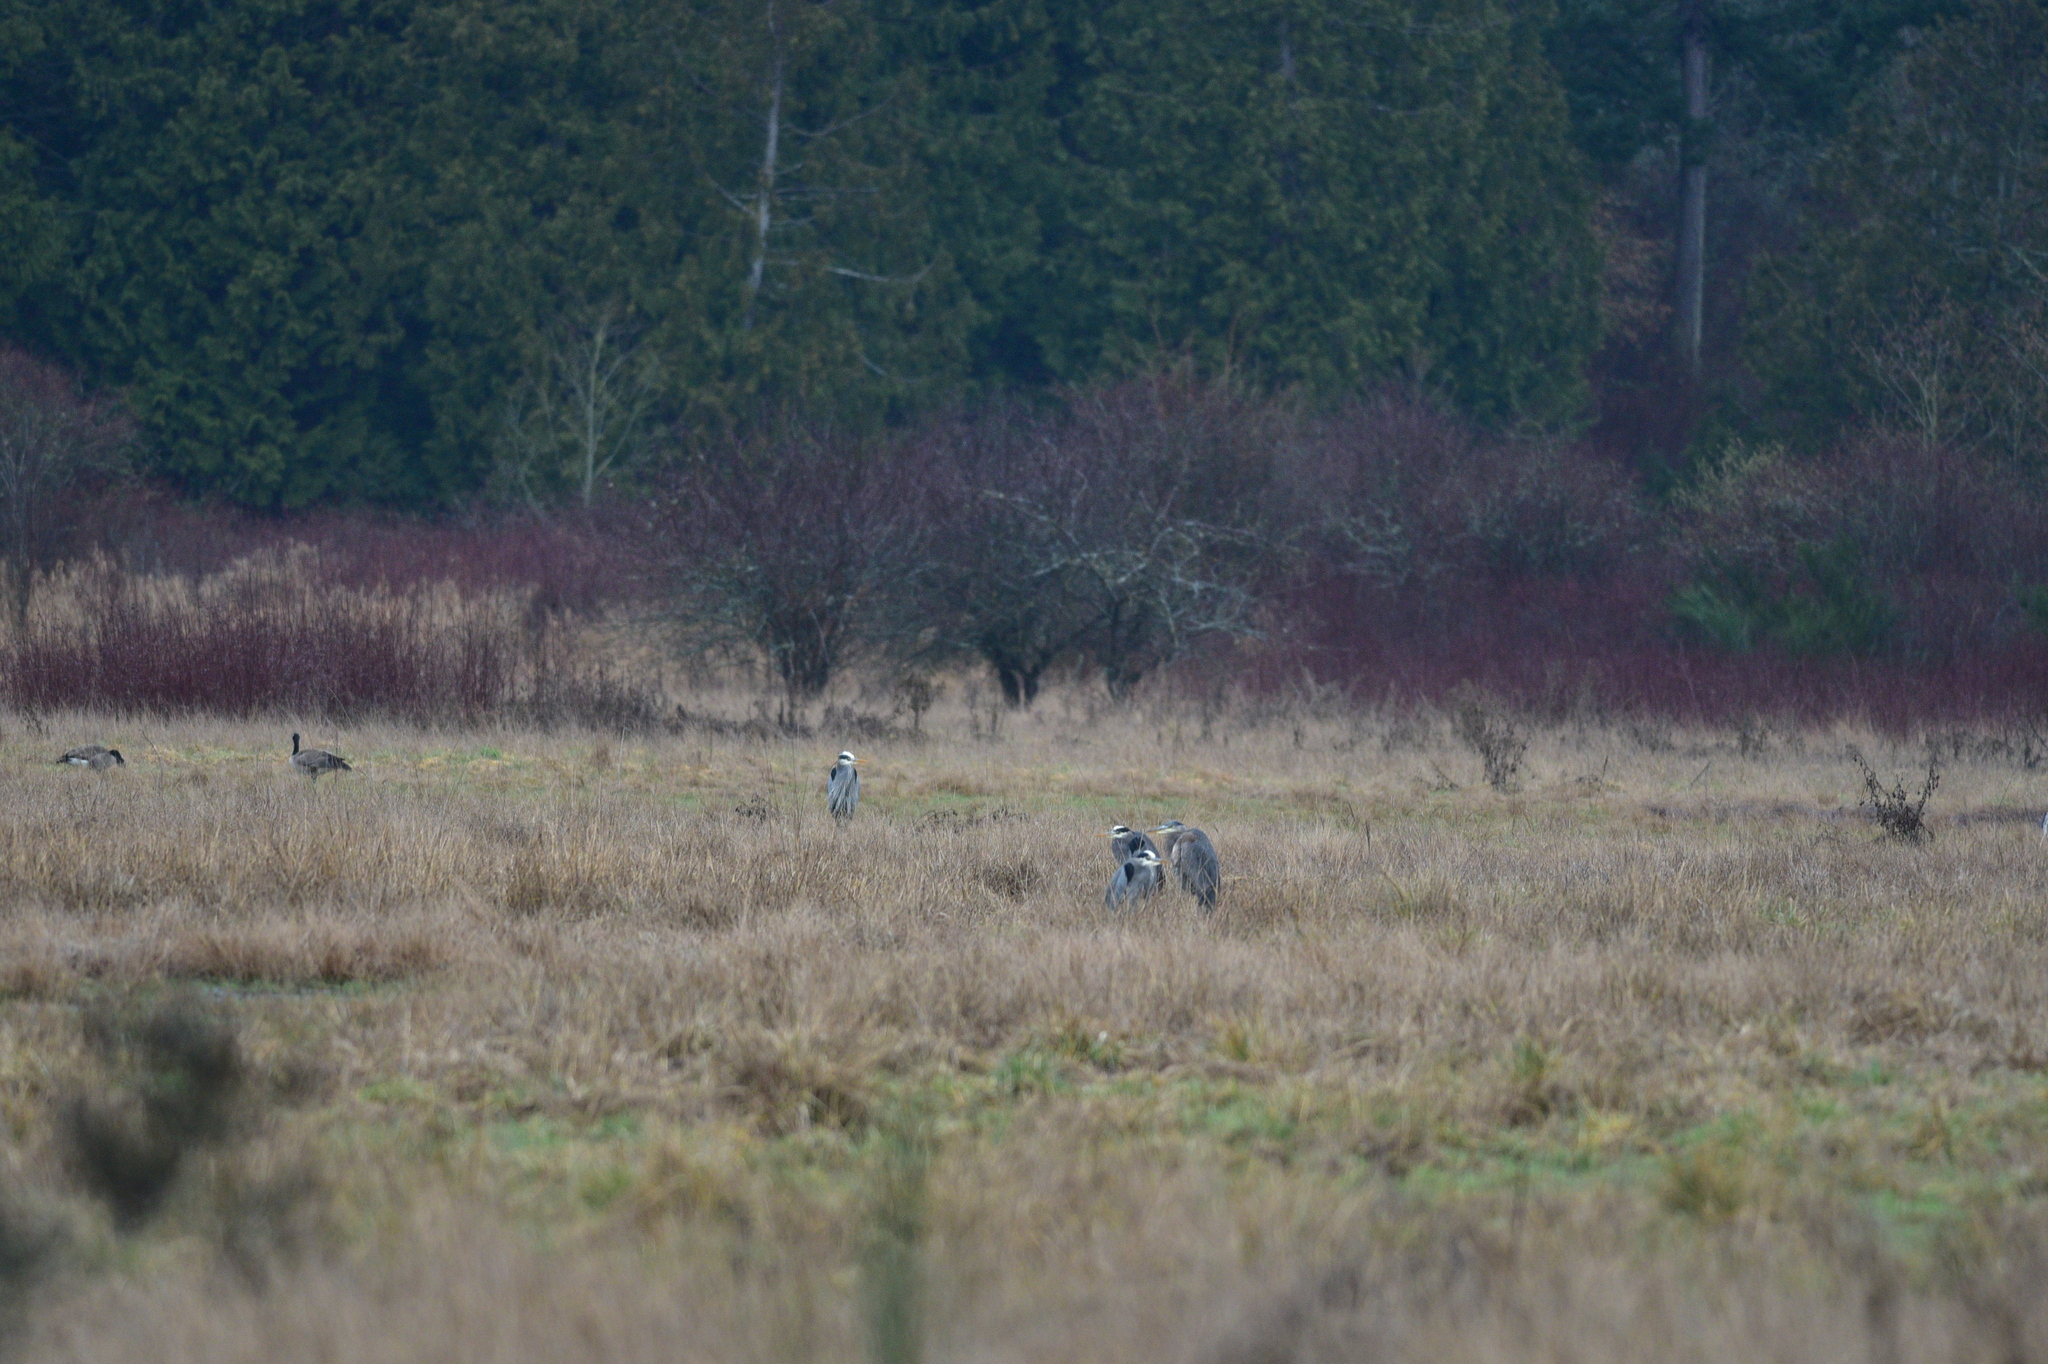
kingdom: Animalia
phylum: Chordata
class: Aves
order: Pelecaniformes
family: Ardeidae
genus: Ardea
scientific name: Ardea herodias
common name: Great blue heron
